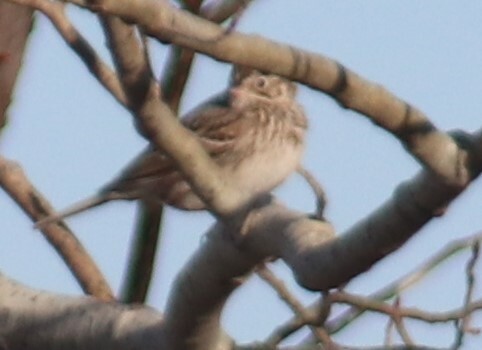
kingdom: Animalia
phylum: Chordata
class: Aves
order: Passeriformes
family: Passerellidae
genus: Pooecetes
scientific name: Pooecetes gramineus
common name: Vesper sparrow
